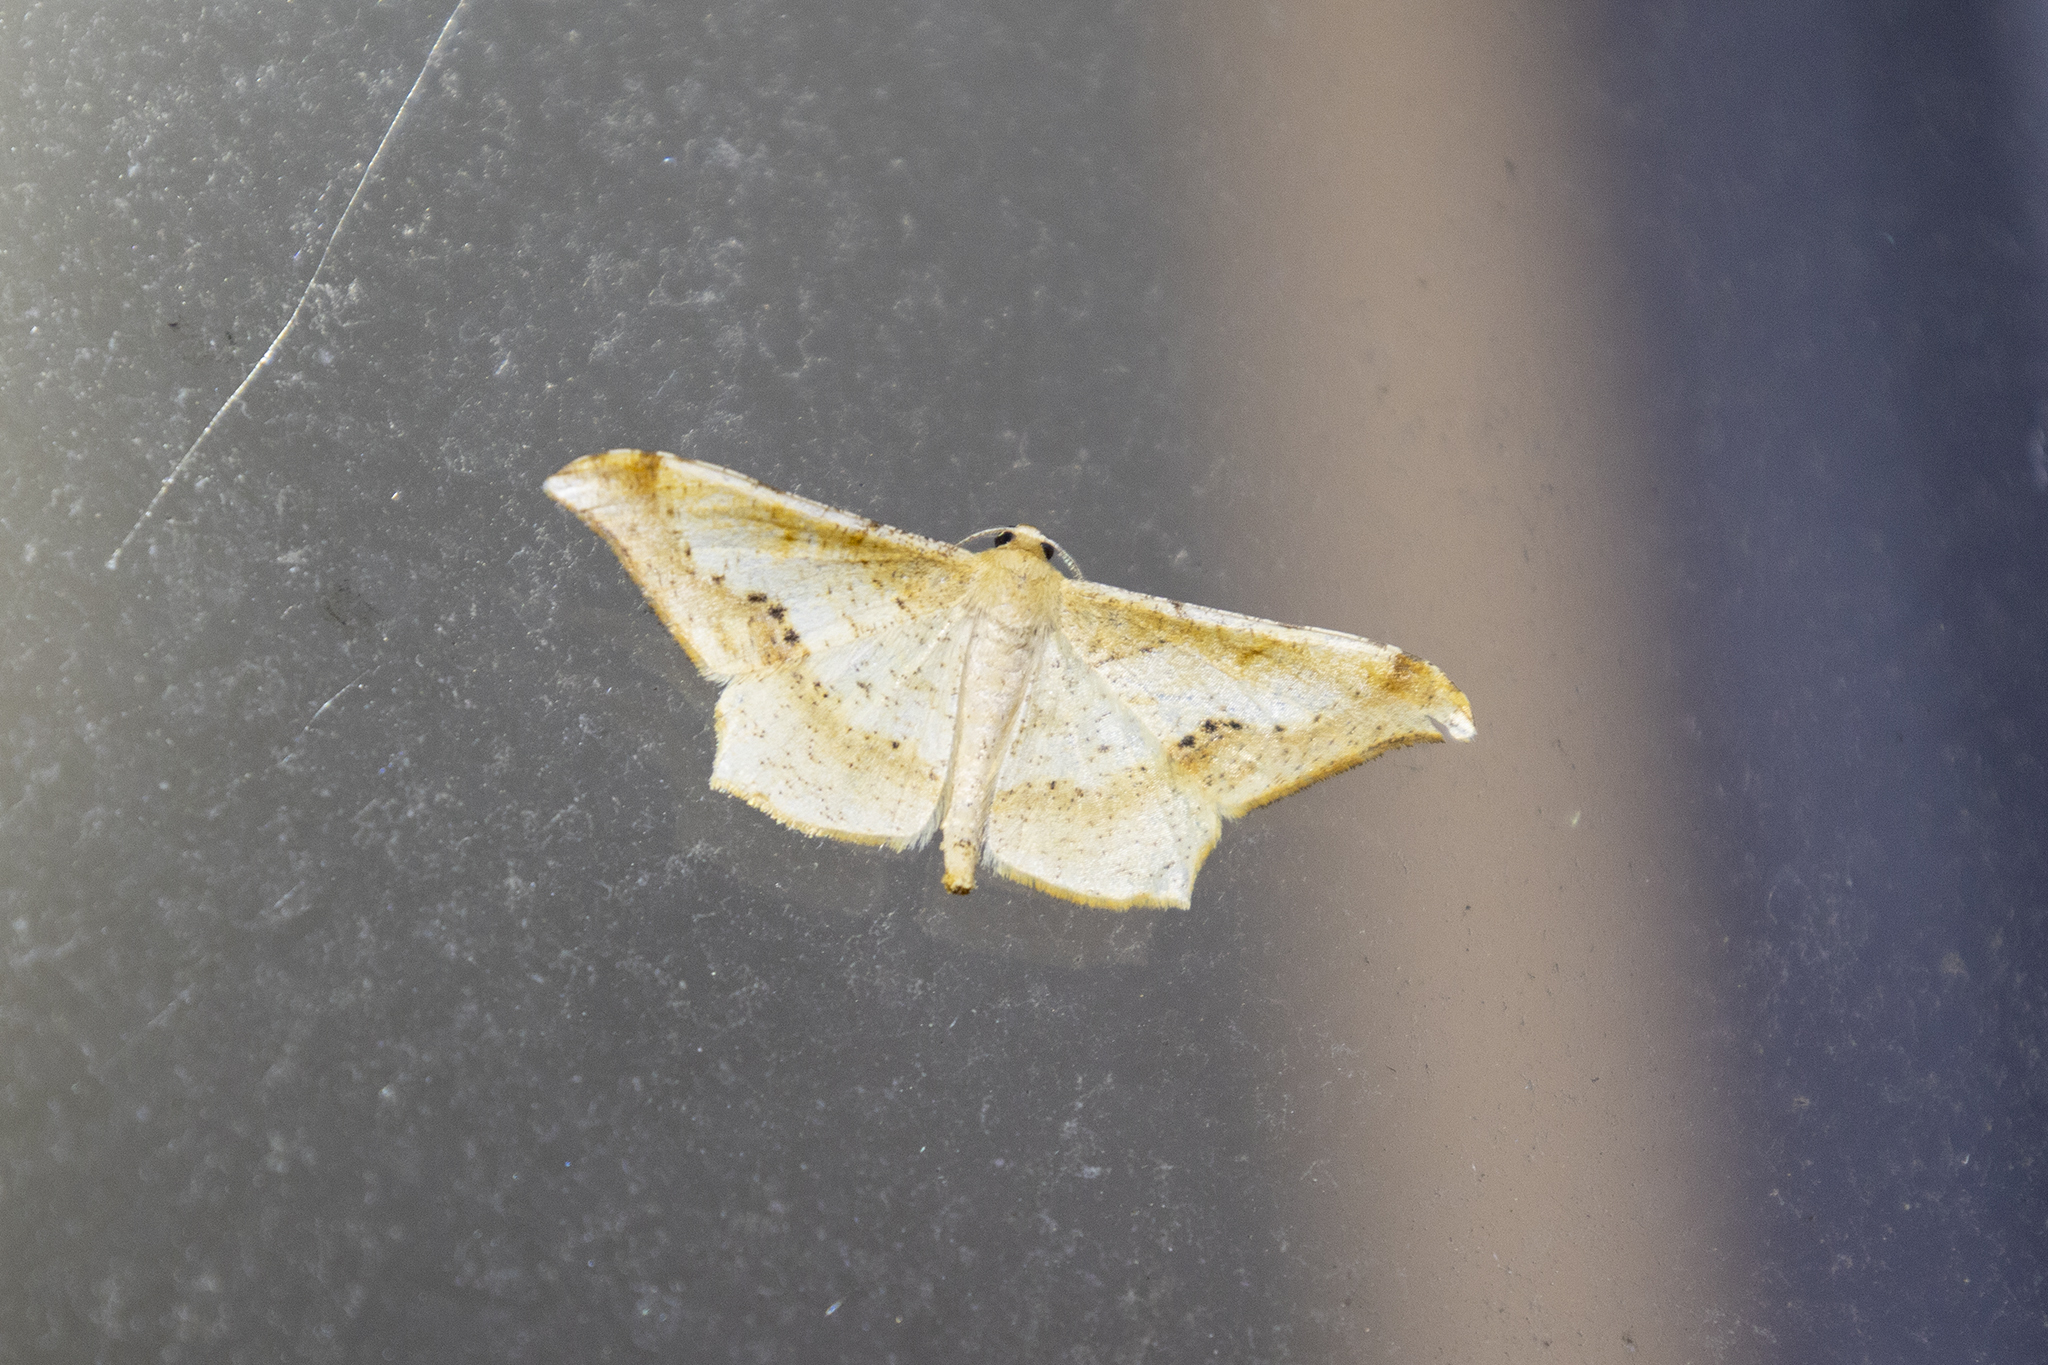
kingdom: Animalia
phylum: Arthropoda
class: Insecta
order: Lepidoptera
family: Geometridae
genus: Krananda
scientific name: Krananda falcata
